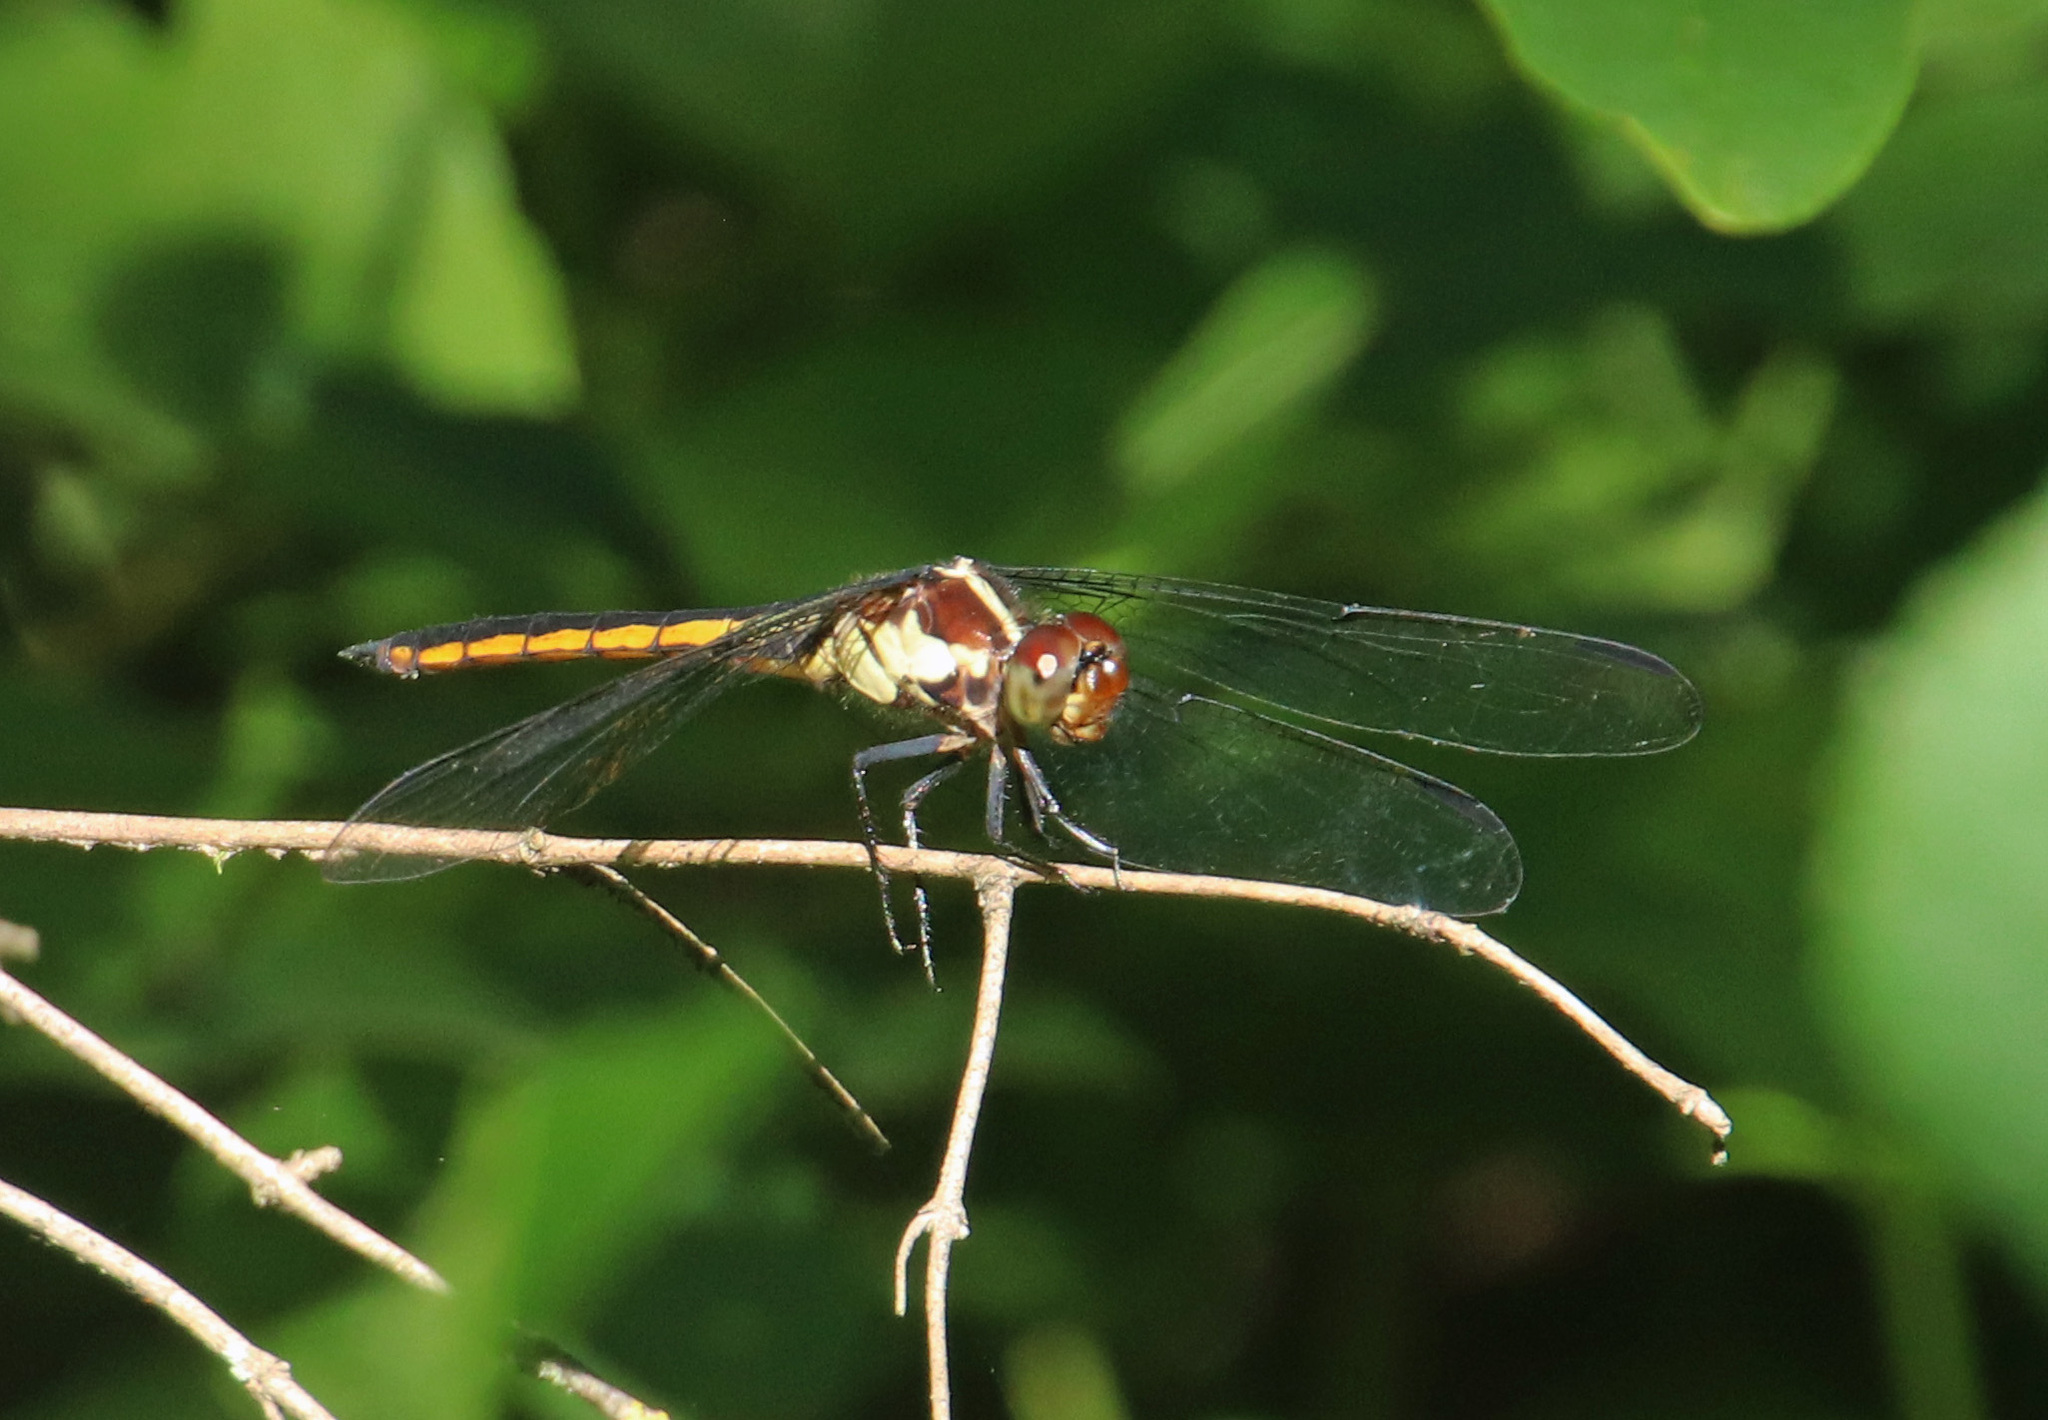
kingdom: Animalia
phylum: Arthropoda
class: Insecta
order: Odonata
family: Libellulidae
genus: Libellula
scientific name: Libellula incesta
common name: Slaty skimmer
